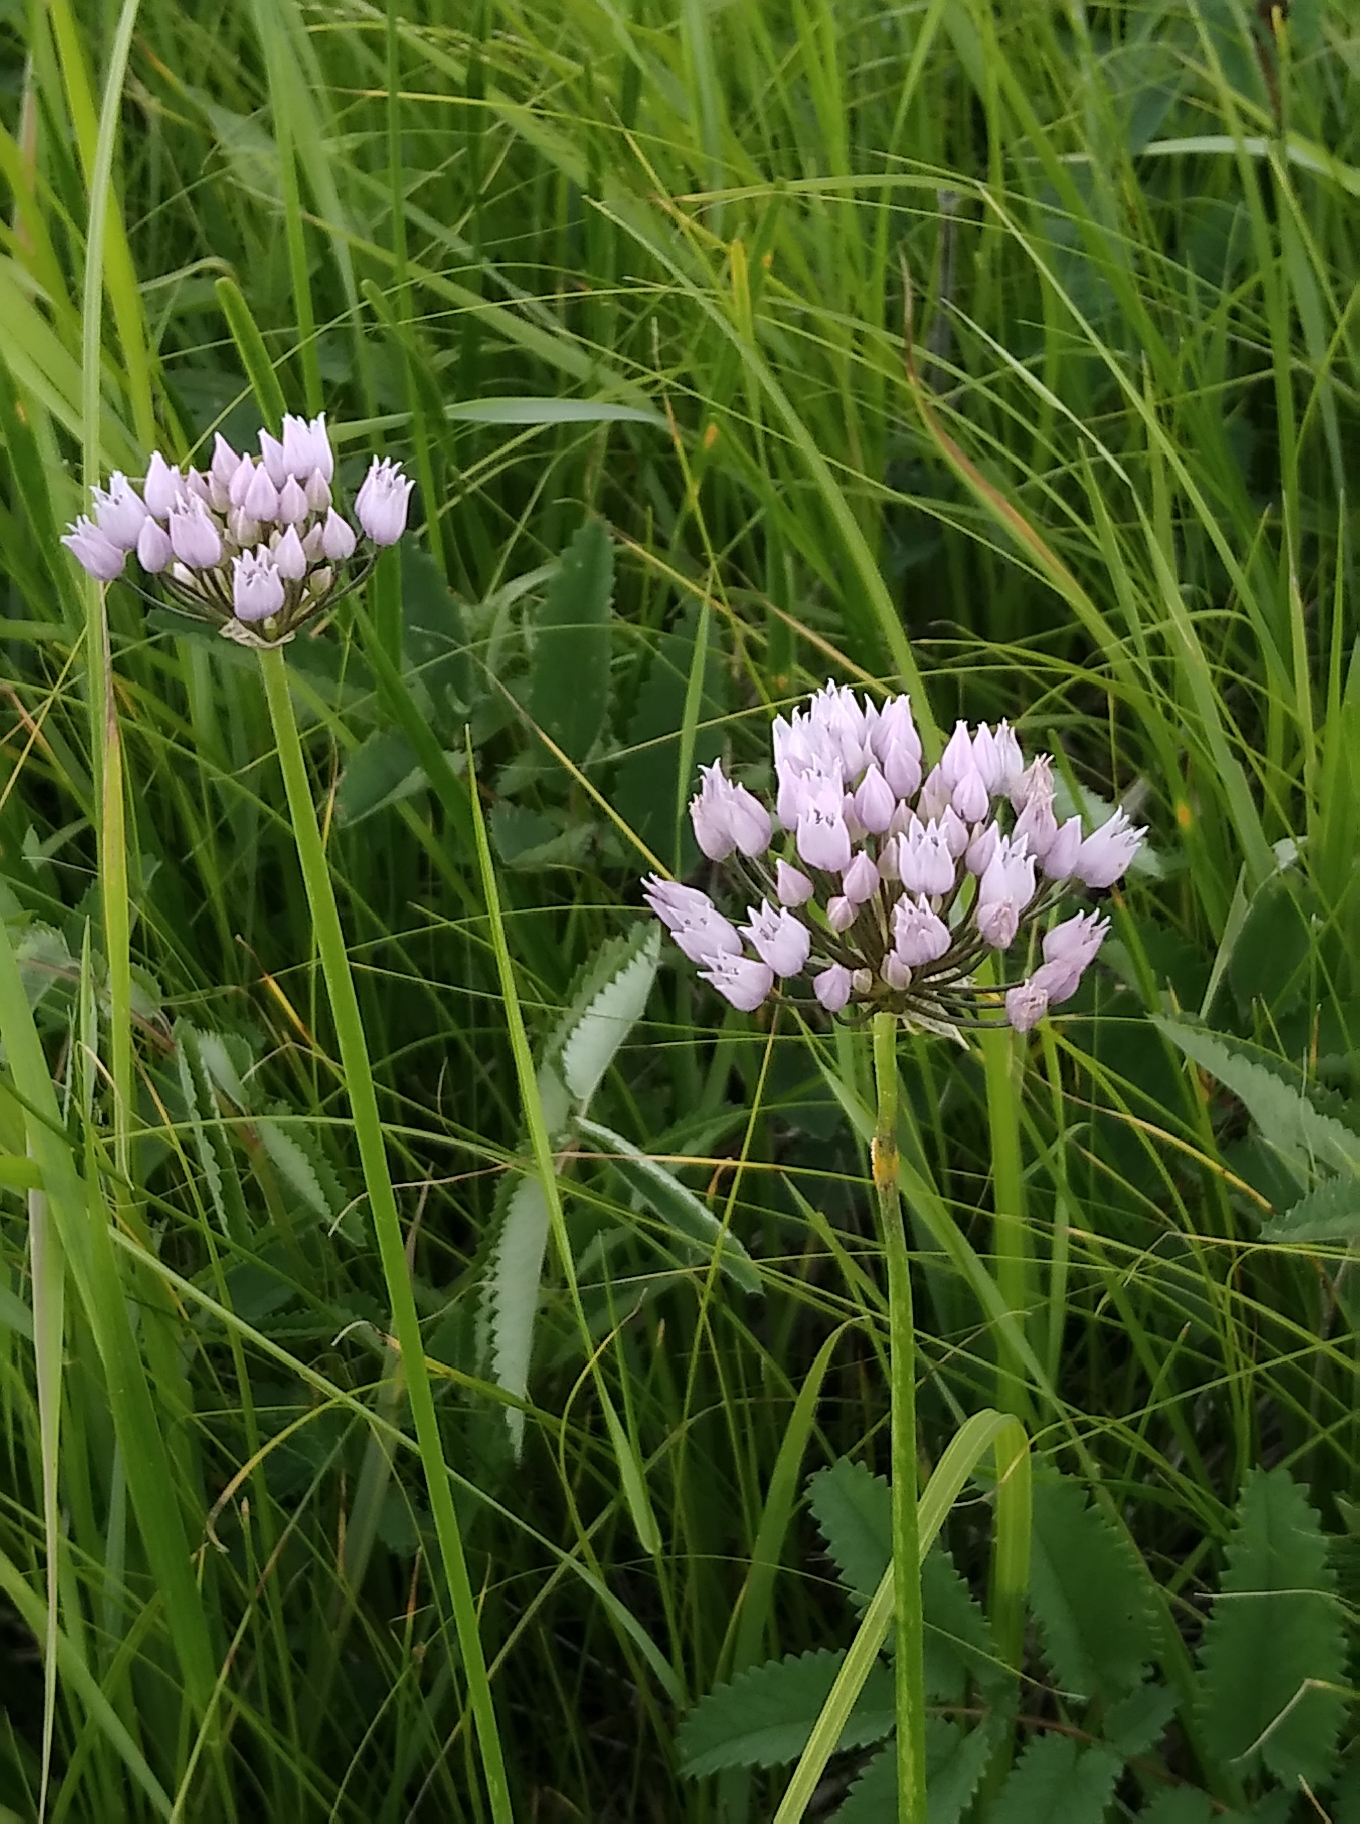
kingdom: Plantae
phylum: Tracheophyta
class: Liliopsida
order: Asparagales
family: Amaryllidaceae
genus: Allium
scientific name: Allium angulosum
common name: Mouse garlic
